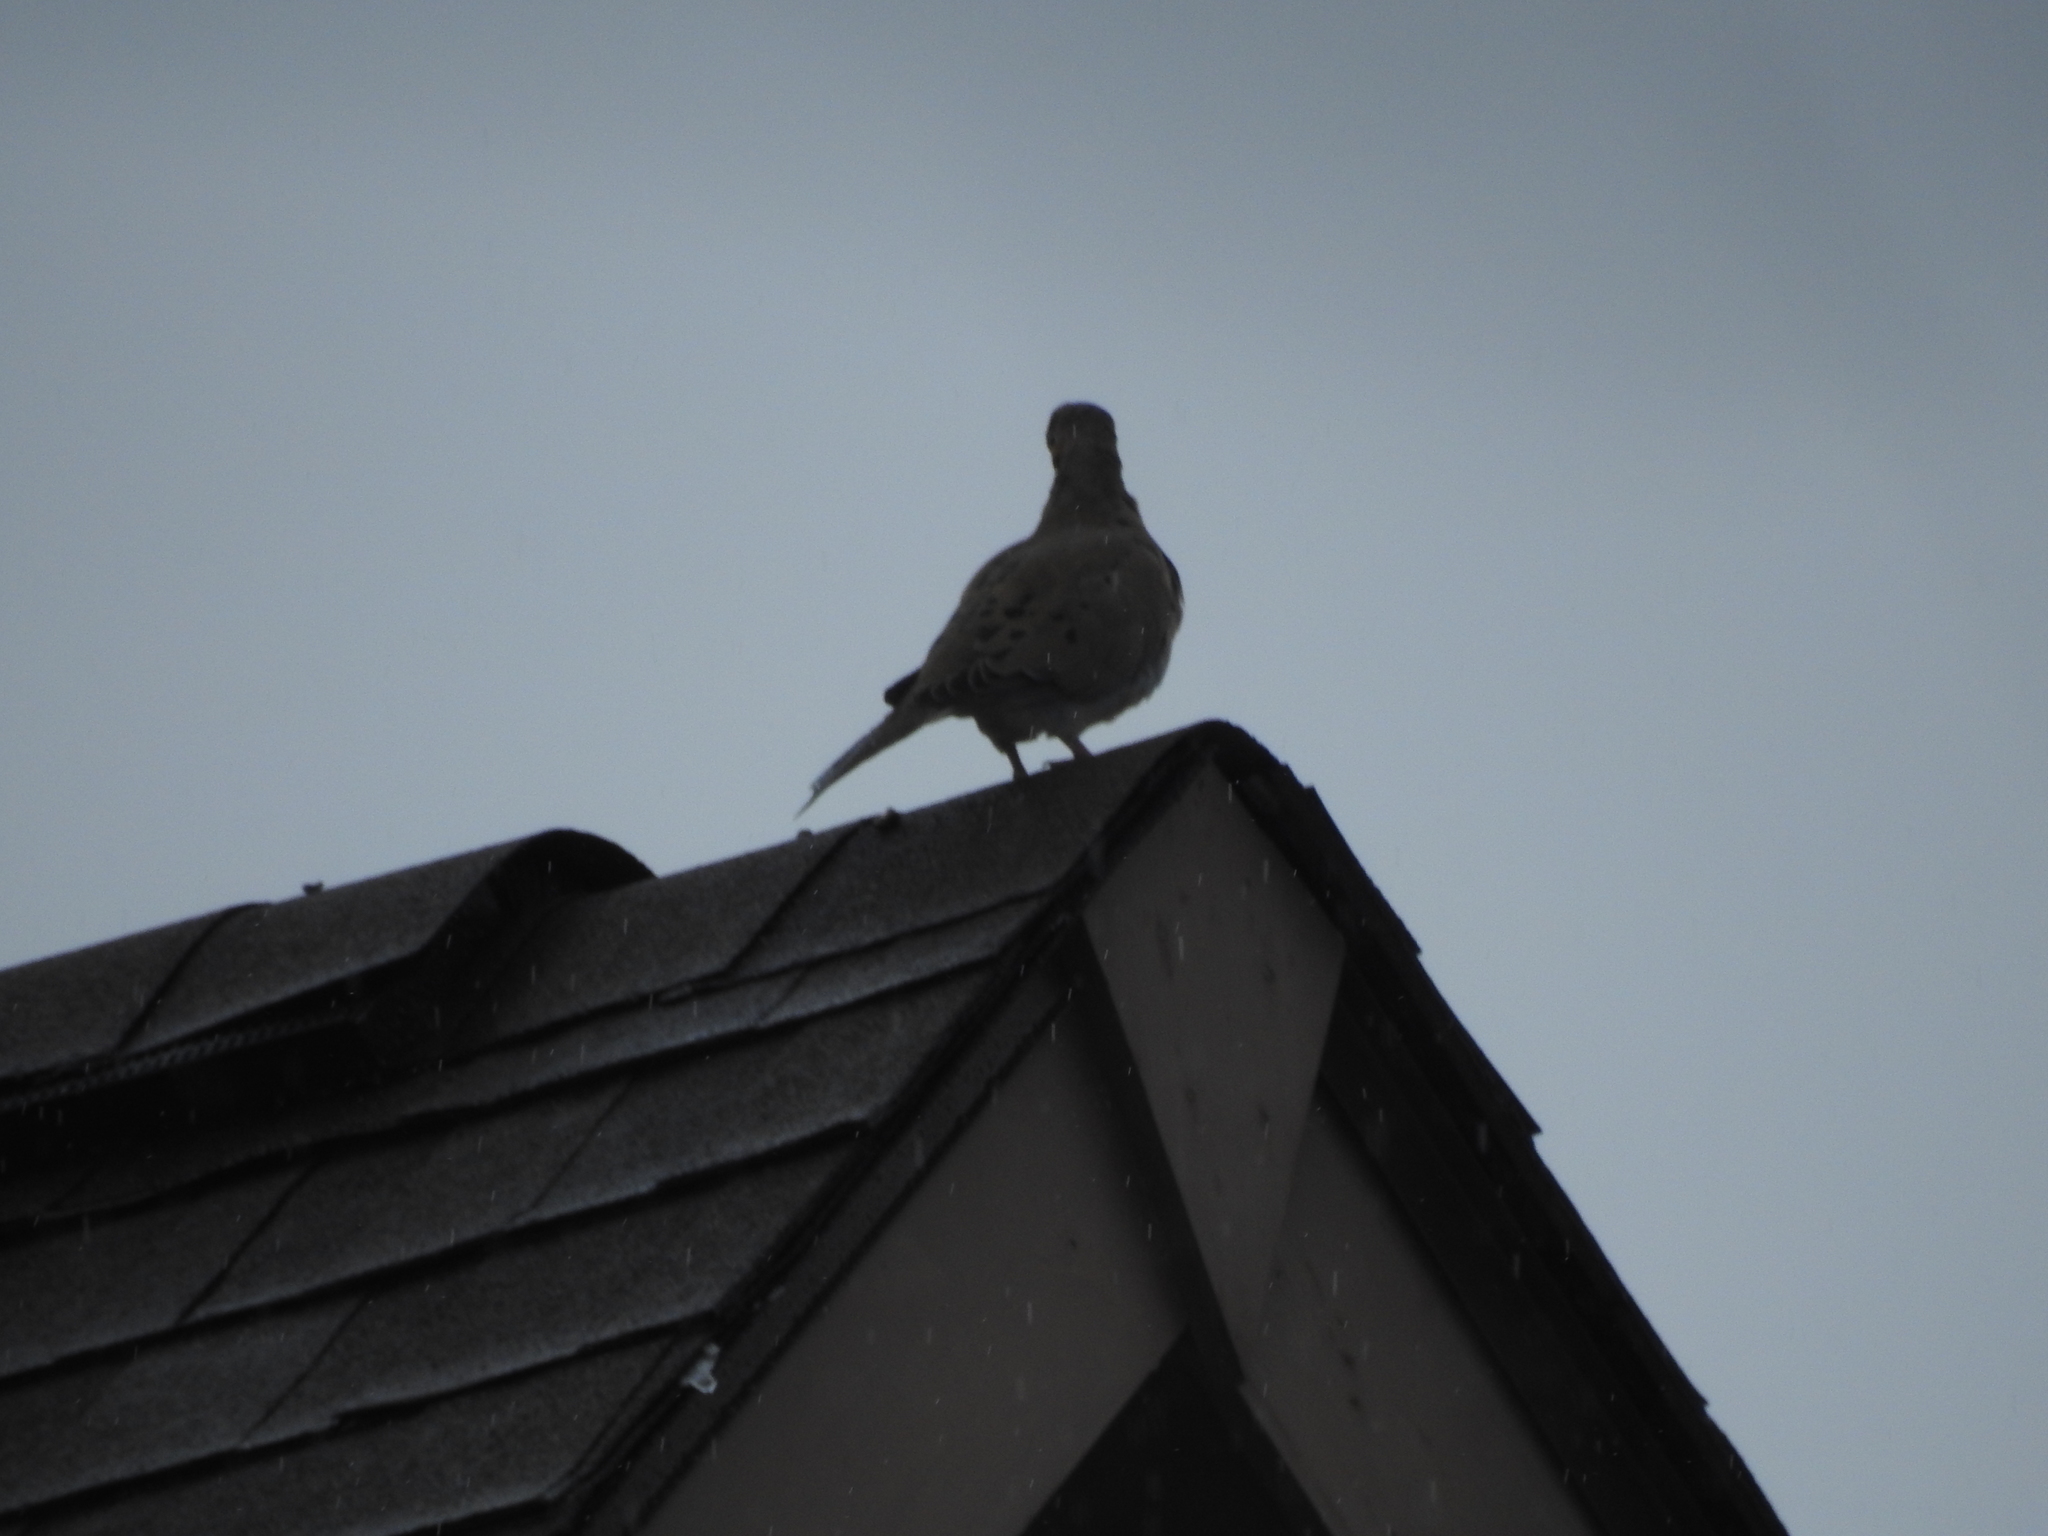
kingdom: Animalia
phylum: Chordata
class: Aves
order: Columbiformes
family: Columbidae
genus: Zenaida
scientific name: Zenaida macroura
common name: Mourning dove
